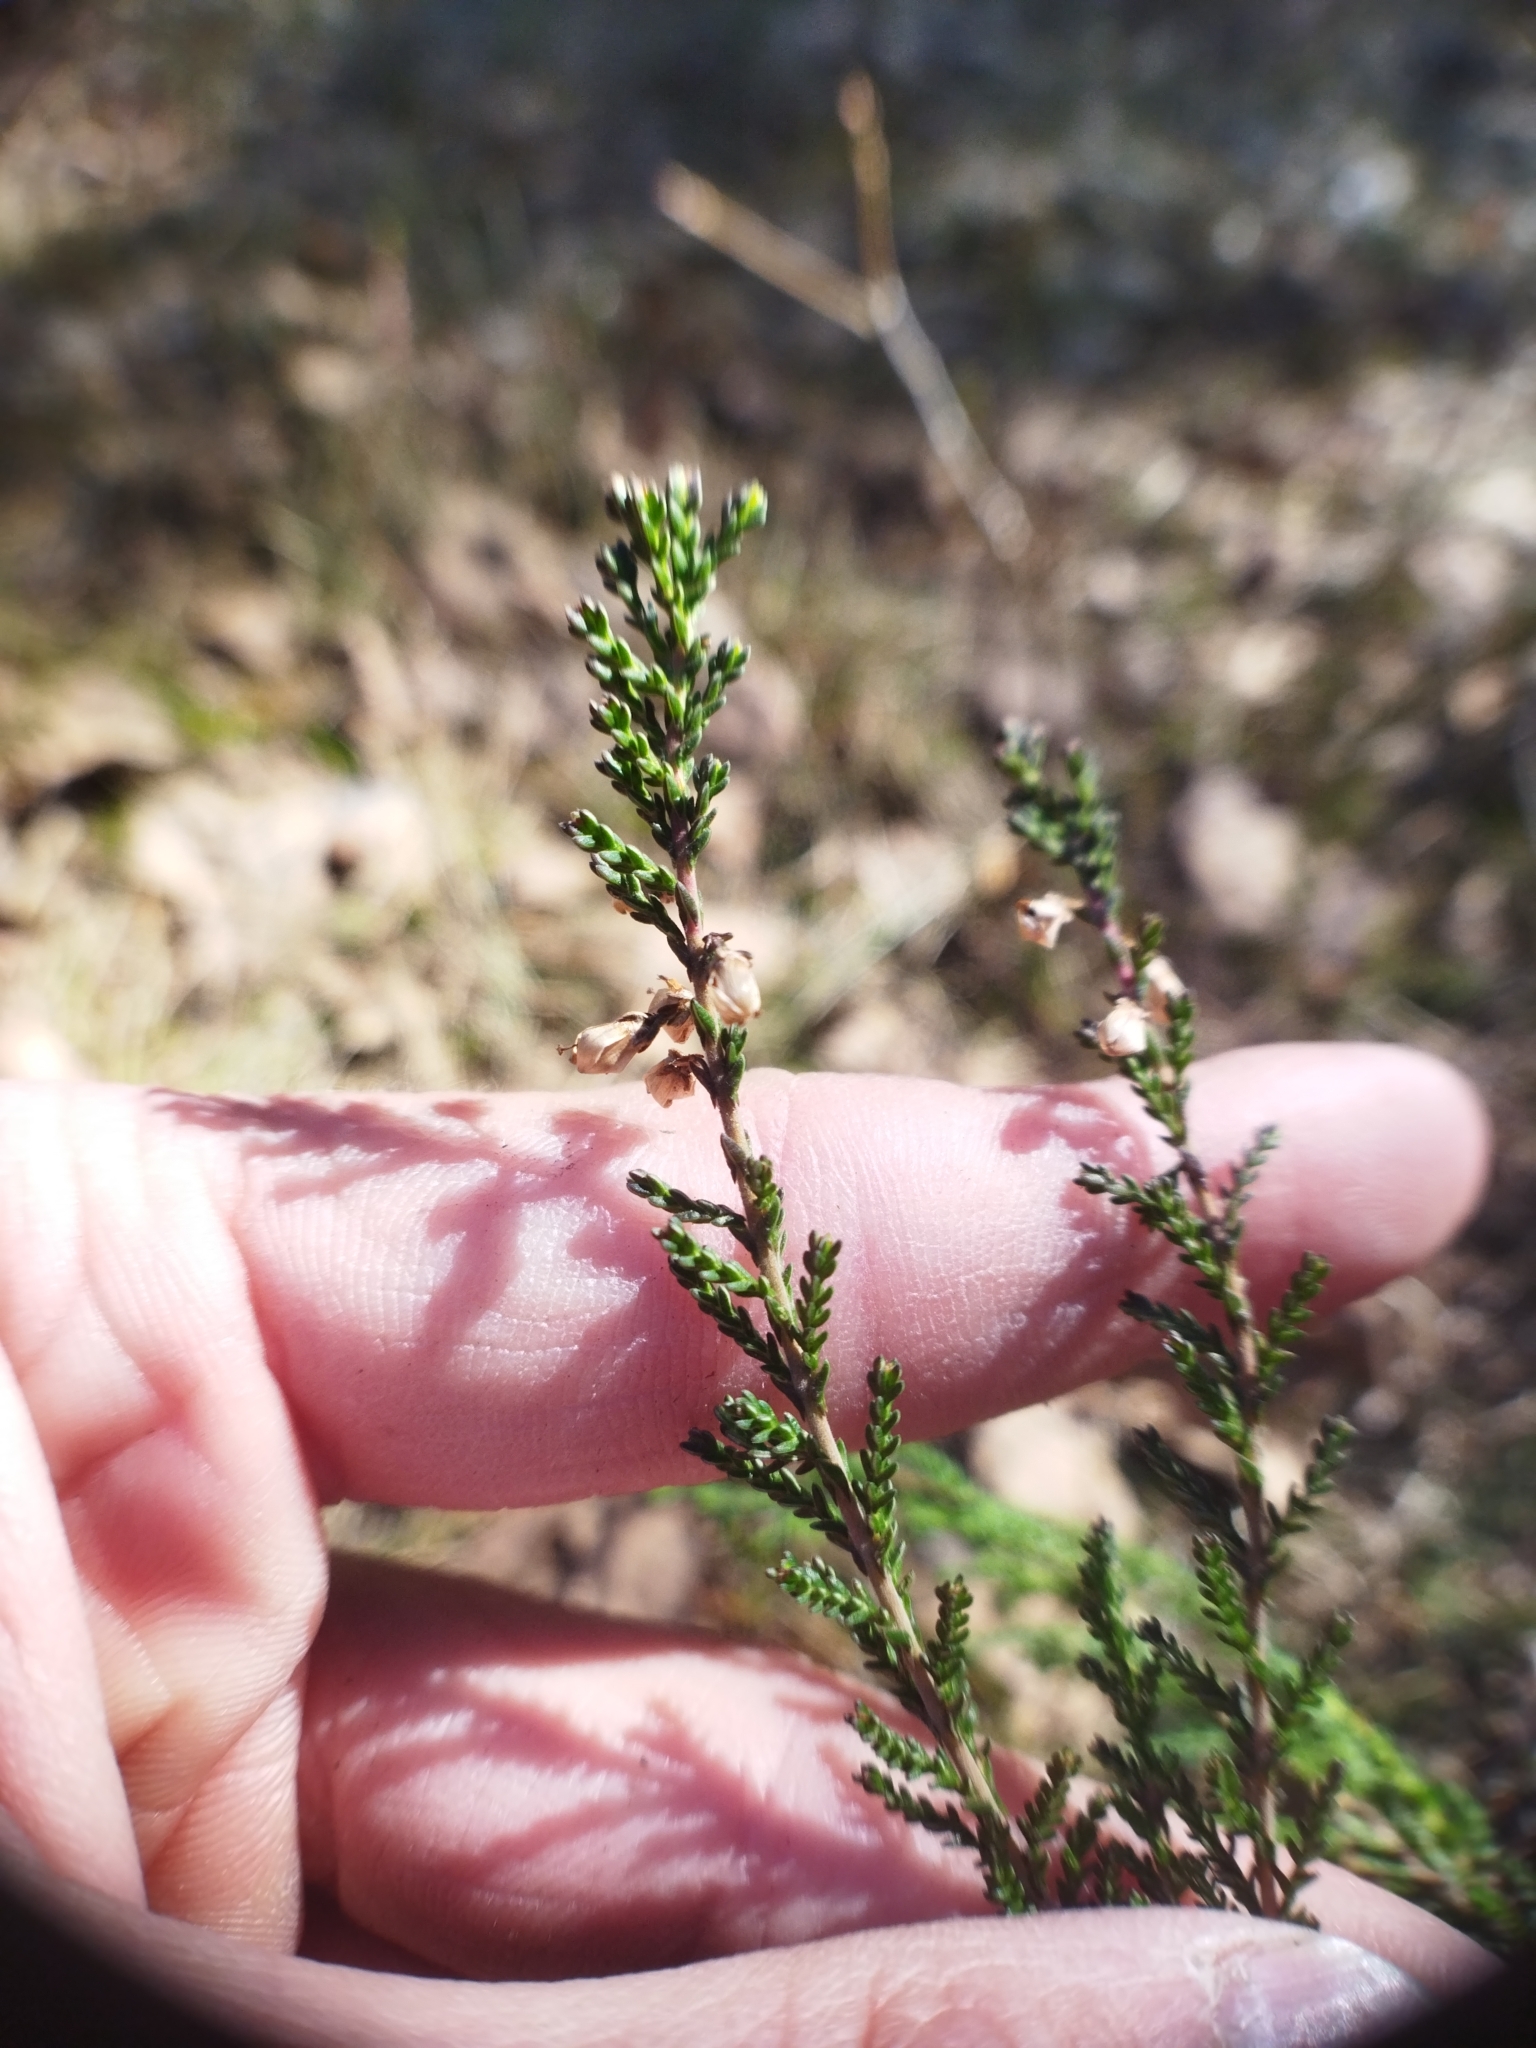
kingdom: Plantae
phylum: Tracheophyta
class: Magnoliopsida
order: Ericales
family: Ericaceae
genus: Calluna
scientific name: Calluna vulgaris
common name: Heather
